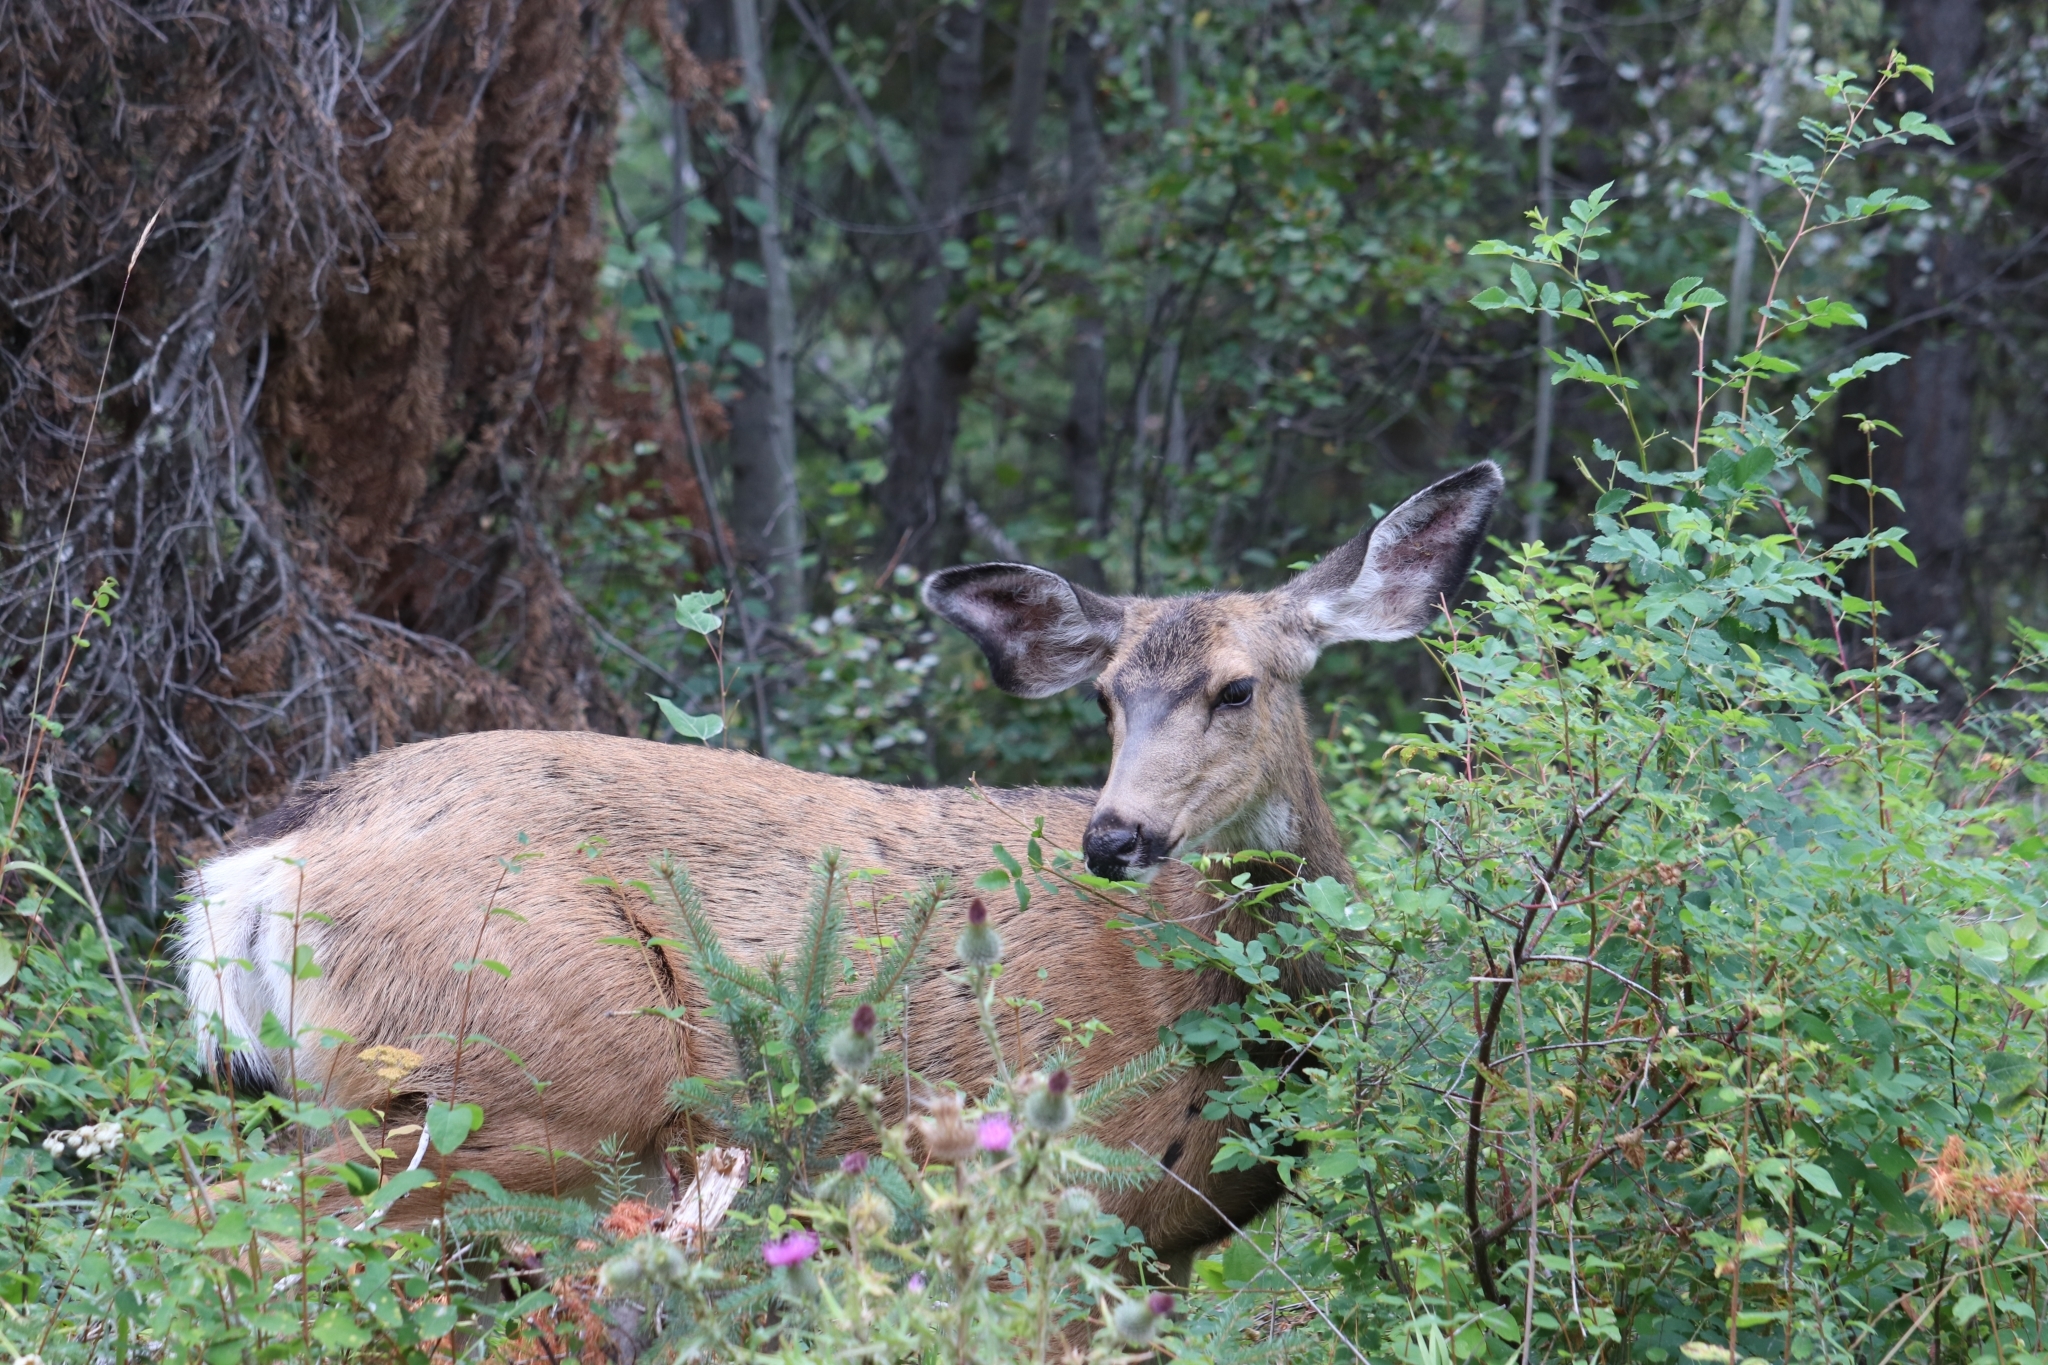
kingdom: Animalia
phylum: Chordata
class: Mammalia
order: Artiodactyla
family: Cervidae
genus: Odocoileus
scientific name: Odocoileus hemionus
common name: Mule deer
